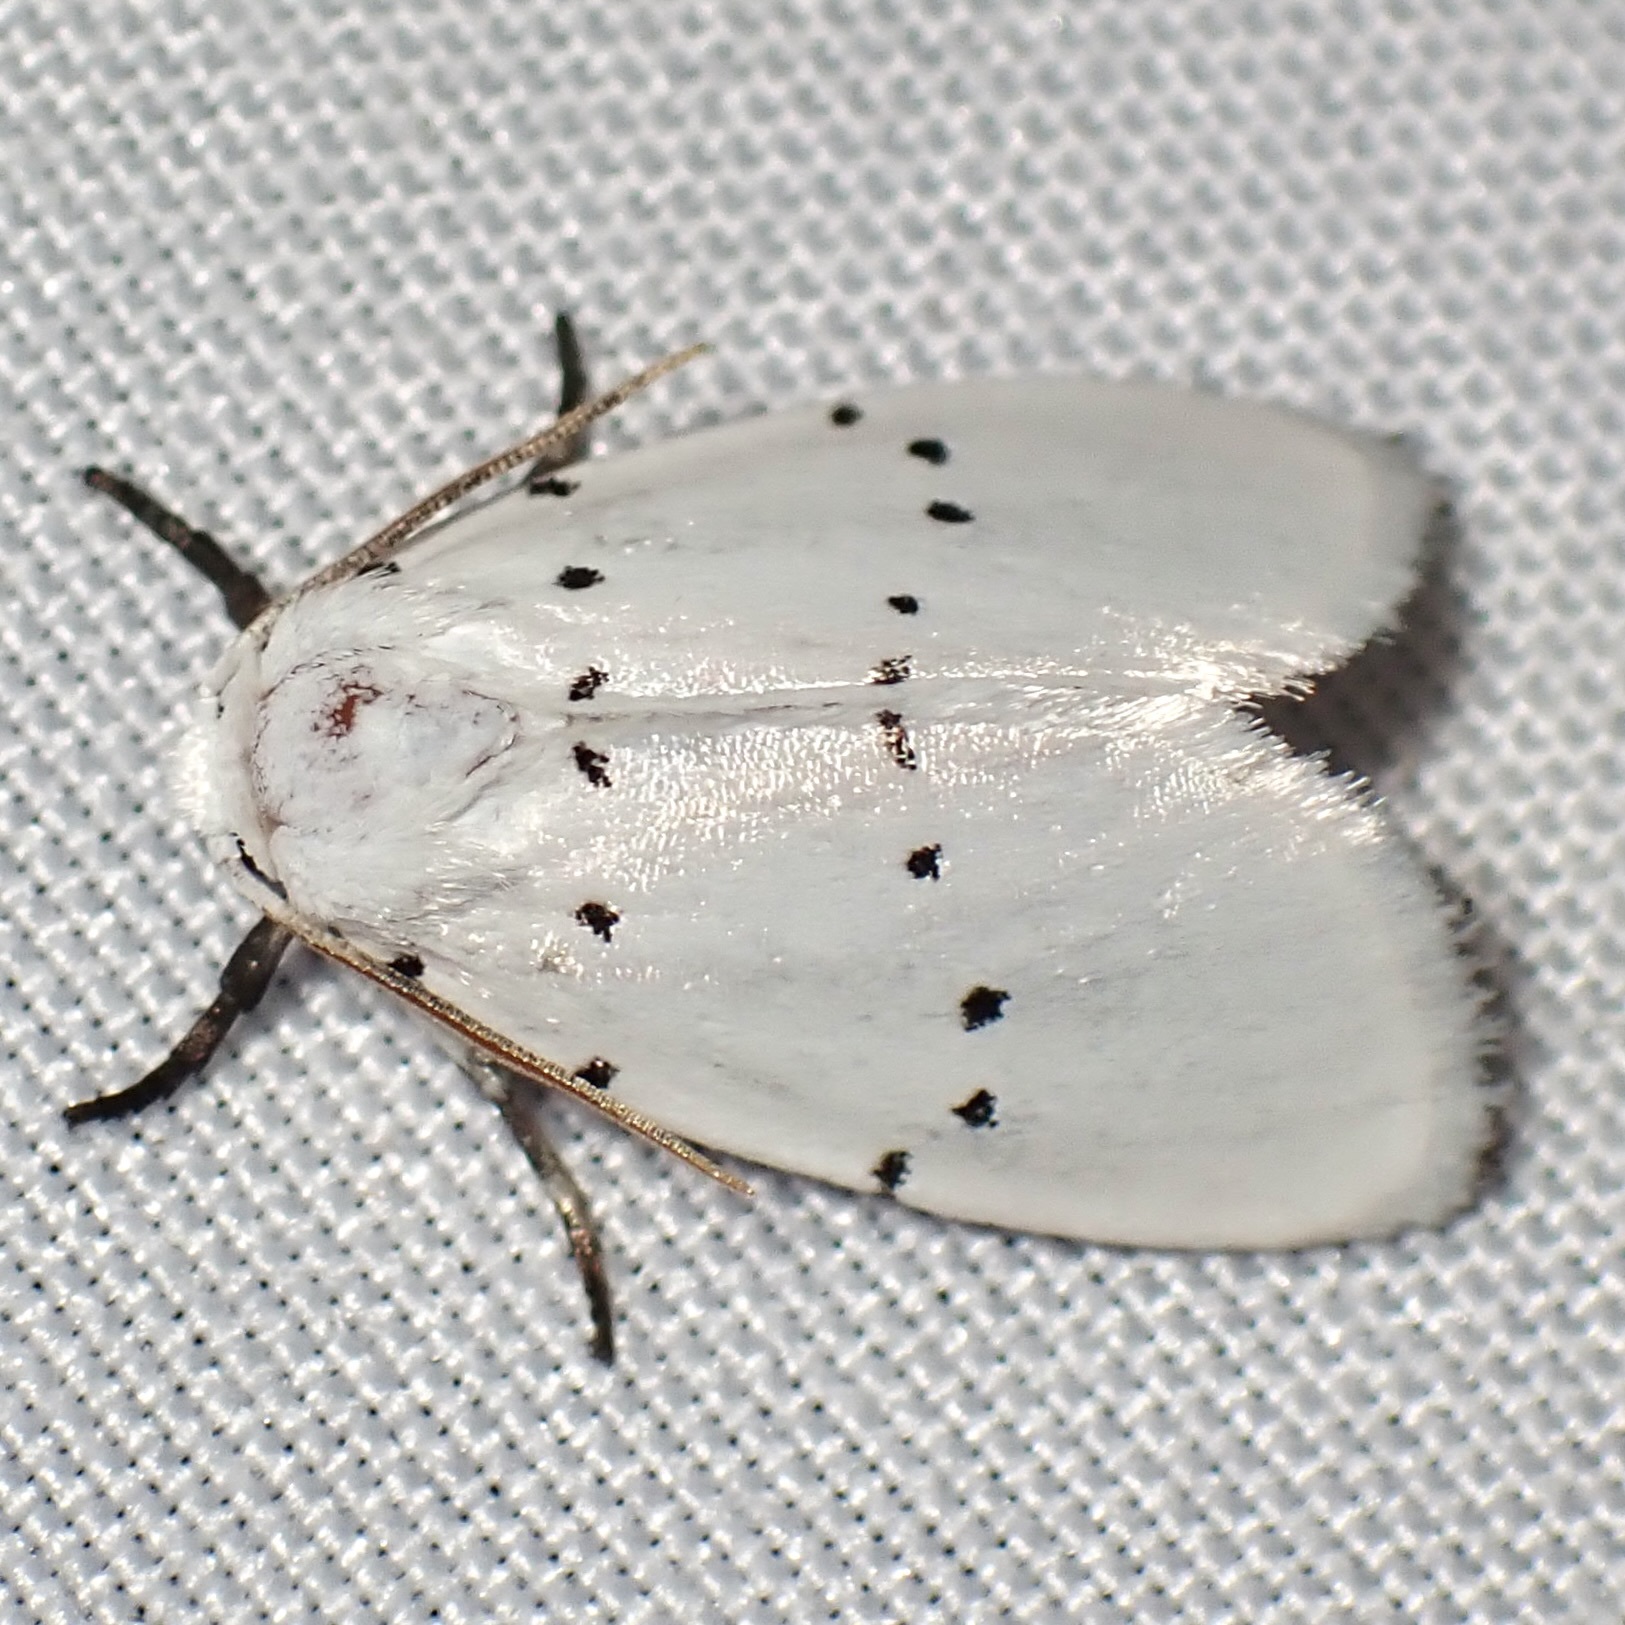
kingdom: Animalia
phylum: Arthropoda
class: Insecta
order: Lepidoptera
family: Noctuidae
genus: Homolagoa
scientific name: Homolagoa grotelliformis
